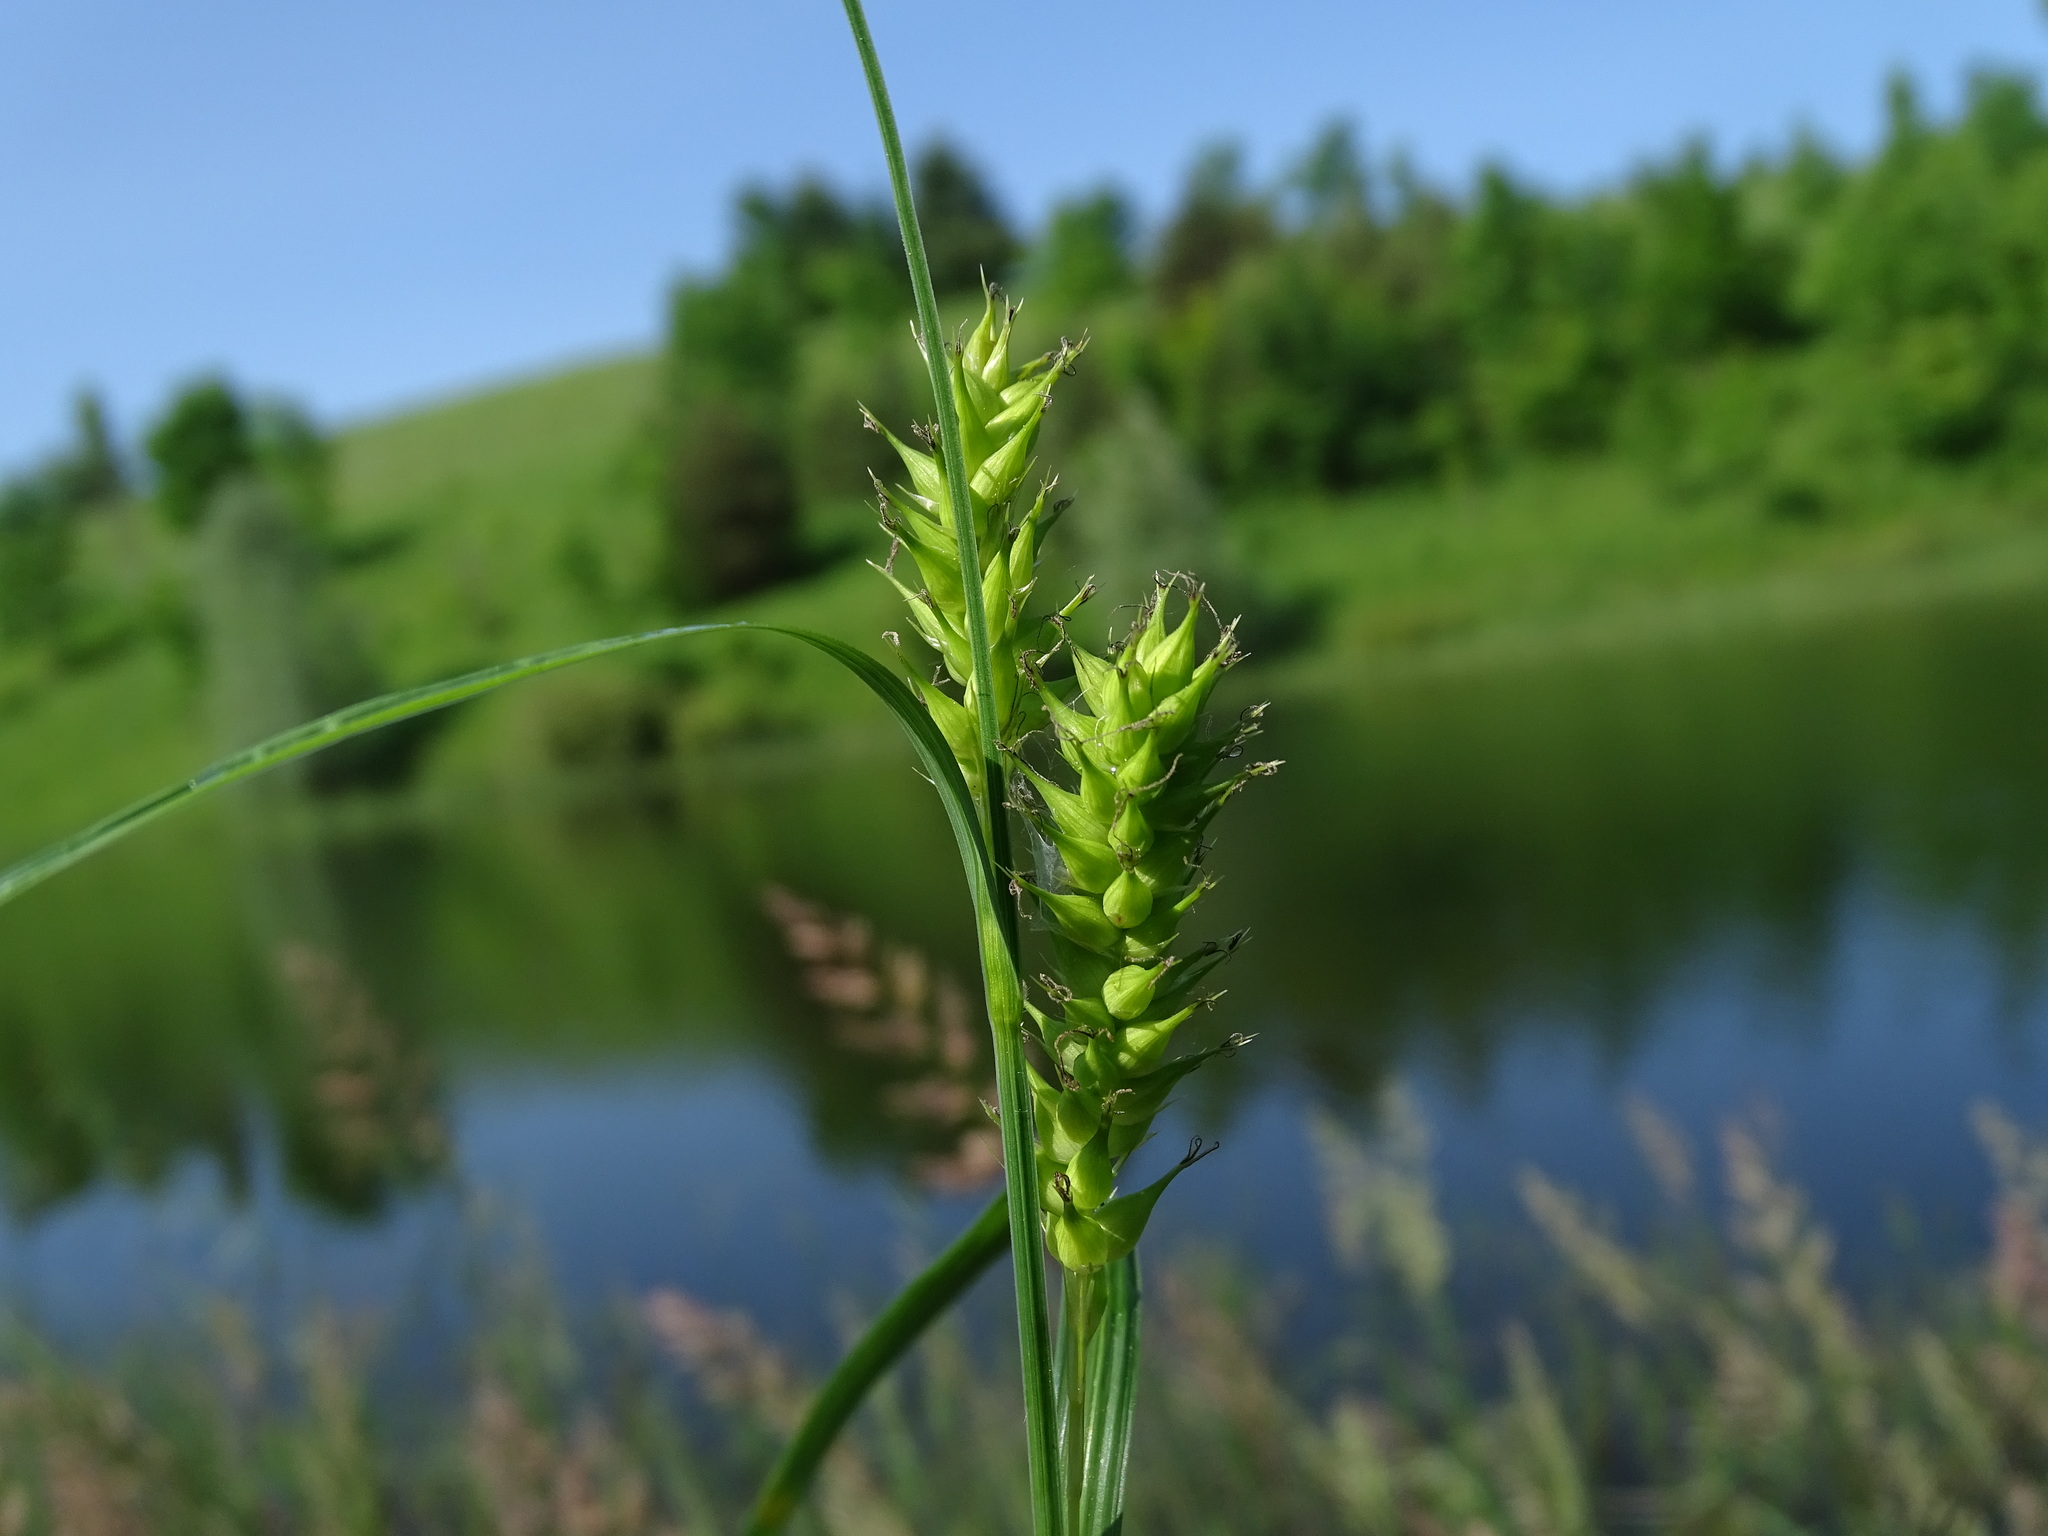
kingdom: Plantae
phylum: Tracheophyta
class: Liliopsida
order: Poales
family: Cyperaceae
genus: Carex
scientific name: Carex atherodes
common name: Wheat sedge
